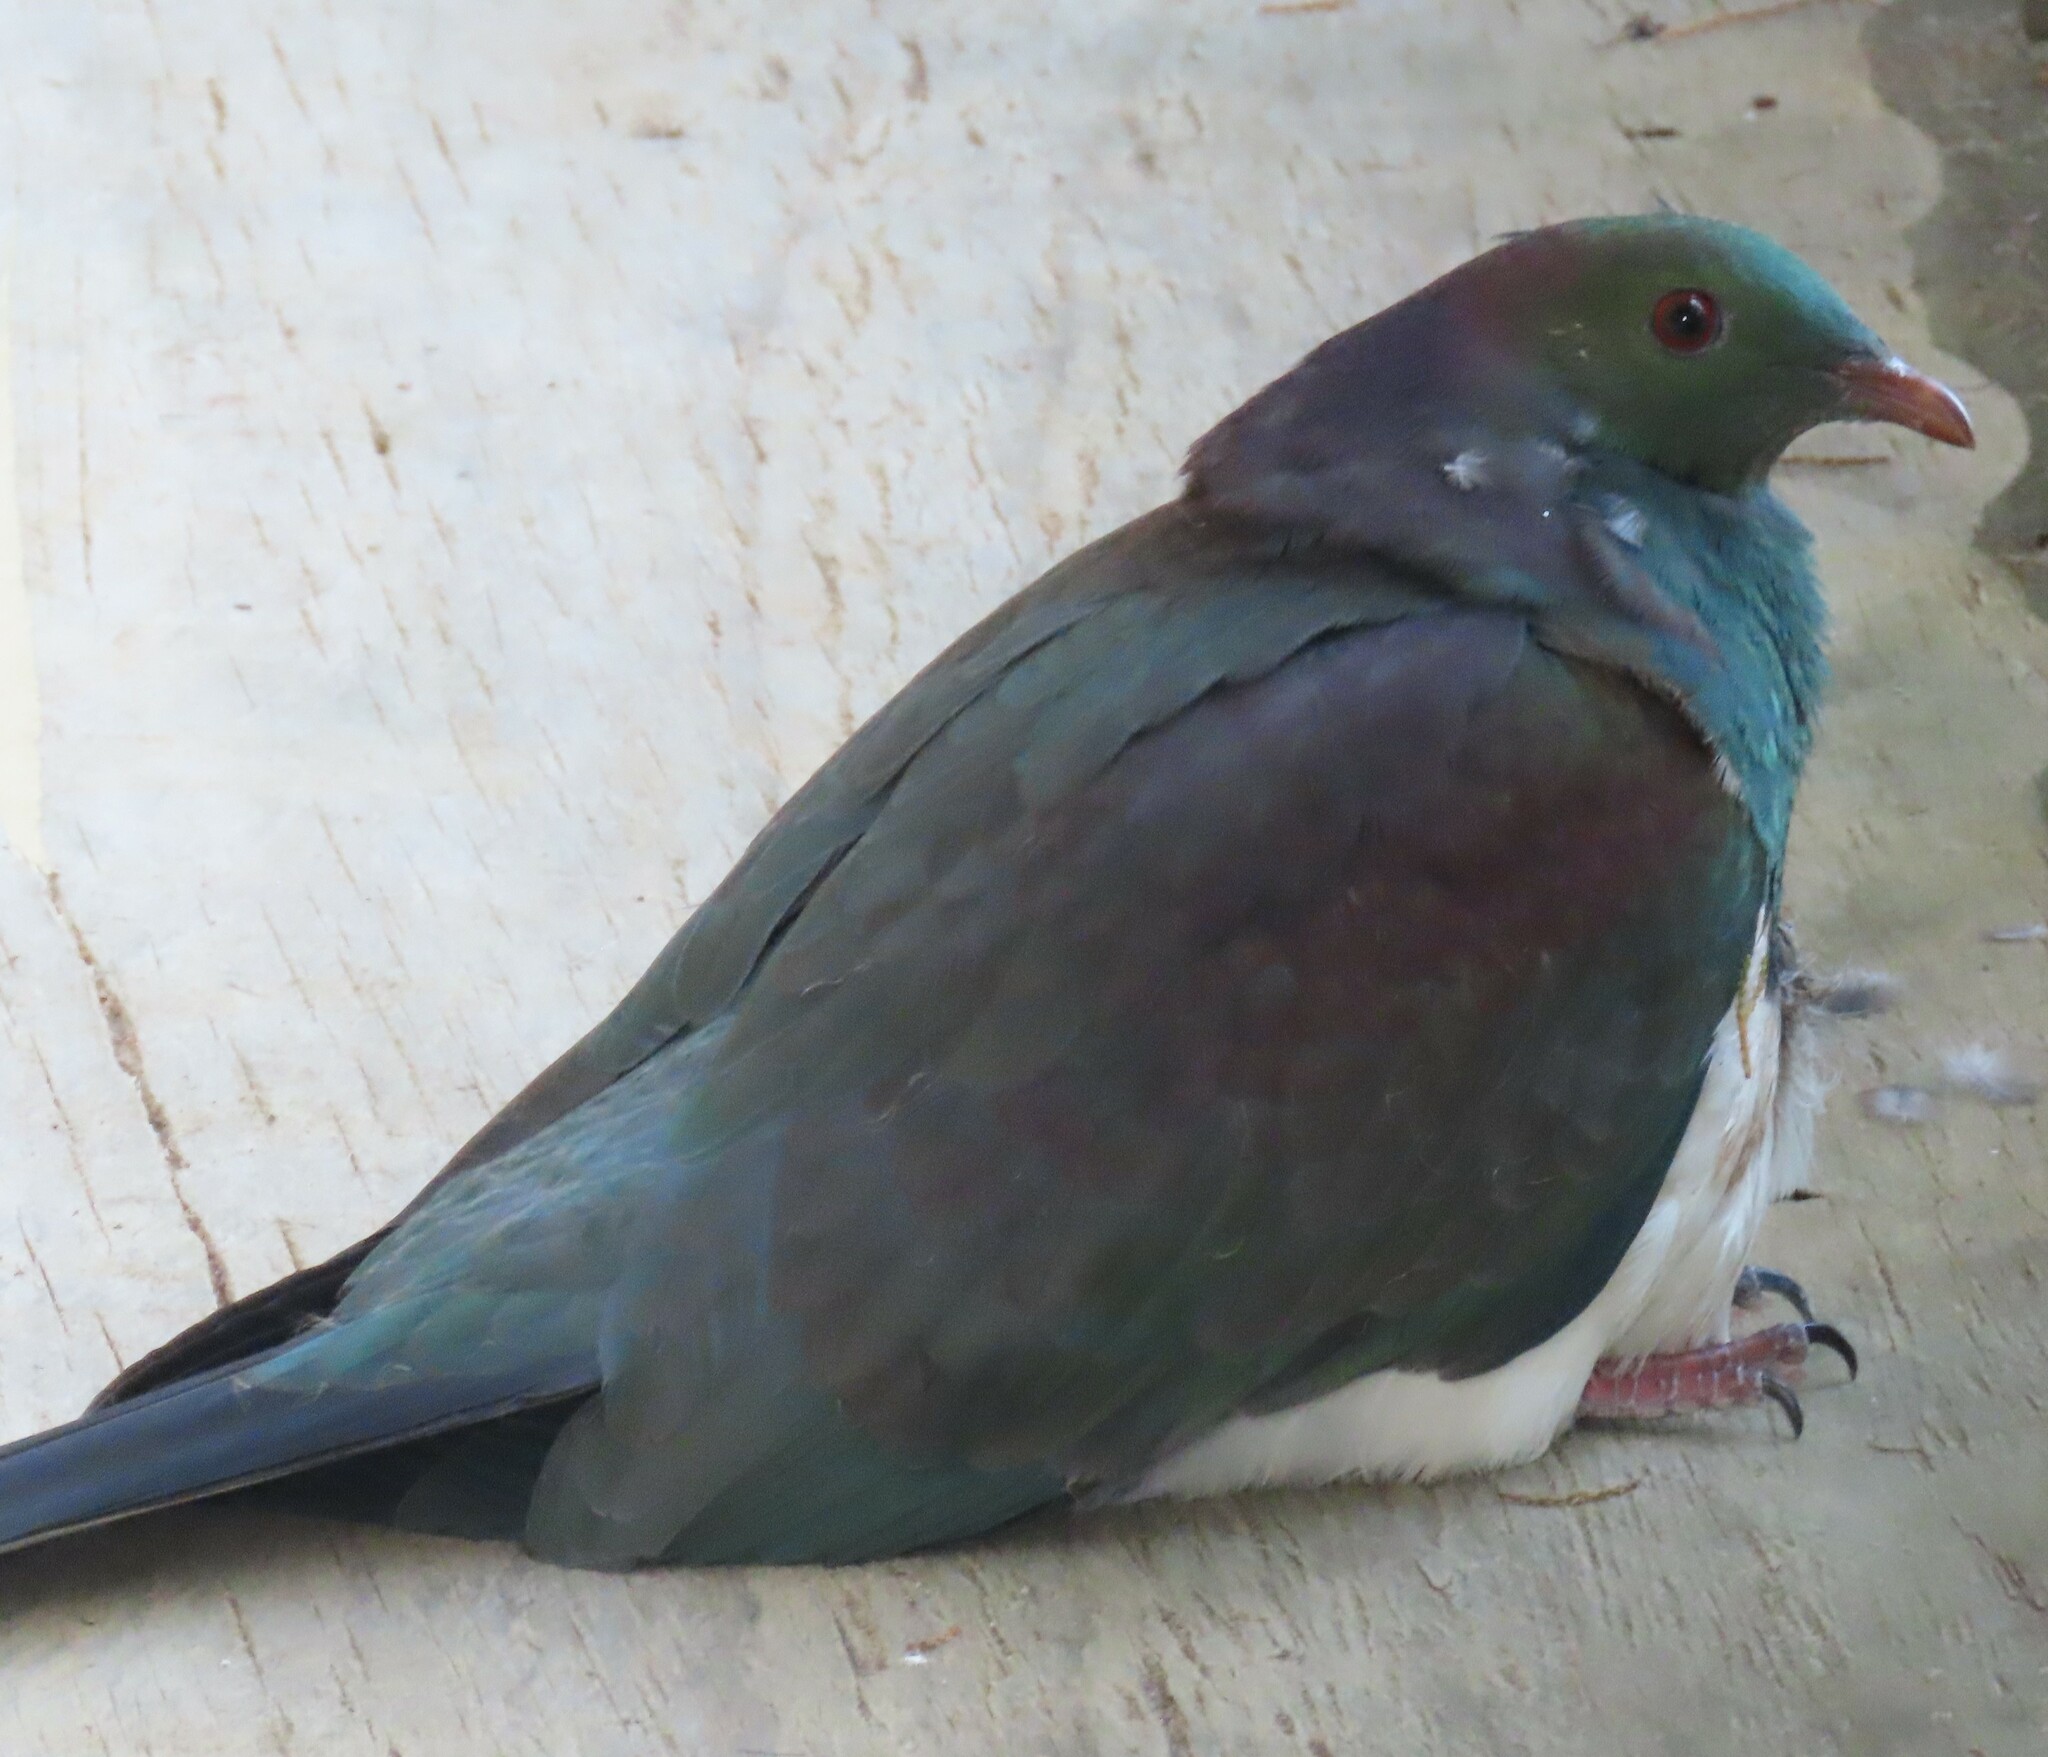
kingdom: Animalia
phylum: Chordata
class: Aves
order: Columbiformes
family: Columbidae
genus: Hemiphaga
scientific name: Hemiphaga novaeseelandiae
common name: New zealand pigeon
